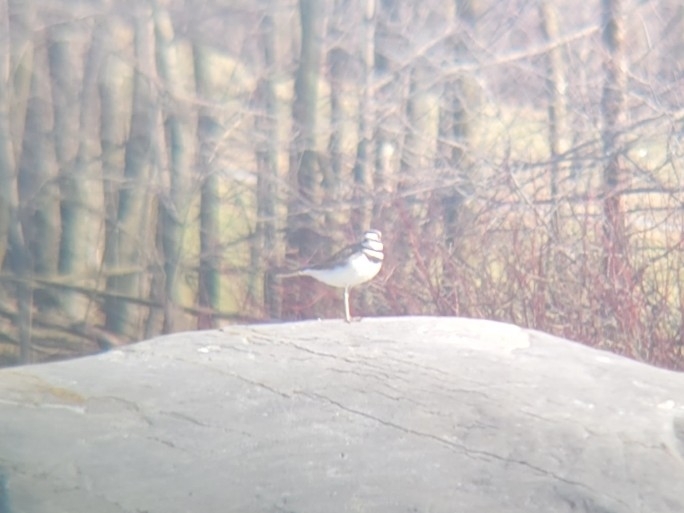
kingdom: Animalia
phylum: Chordata
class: Aves
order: Charadriiformes
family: Charadriidae
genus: Charadrius
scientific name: Charadrius vociferus
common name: Killdeer
